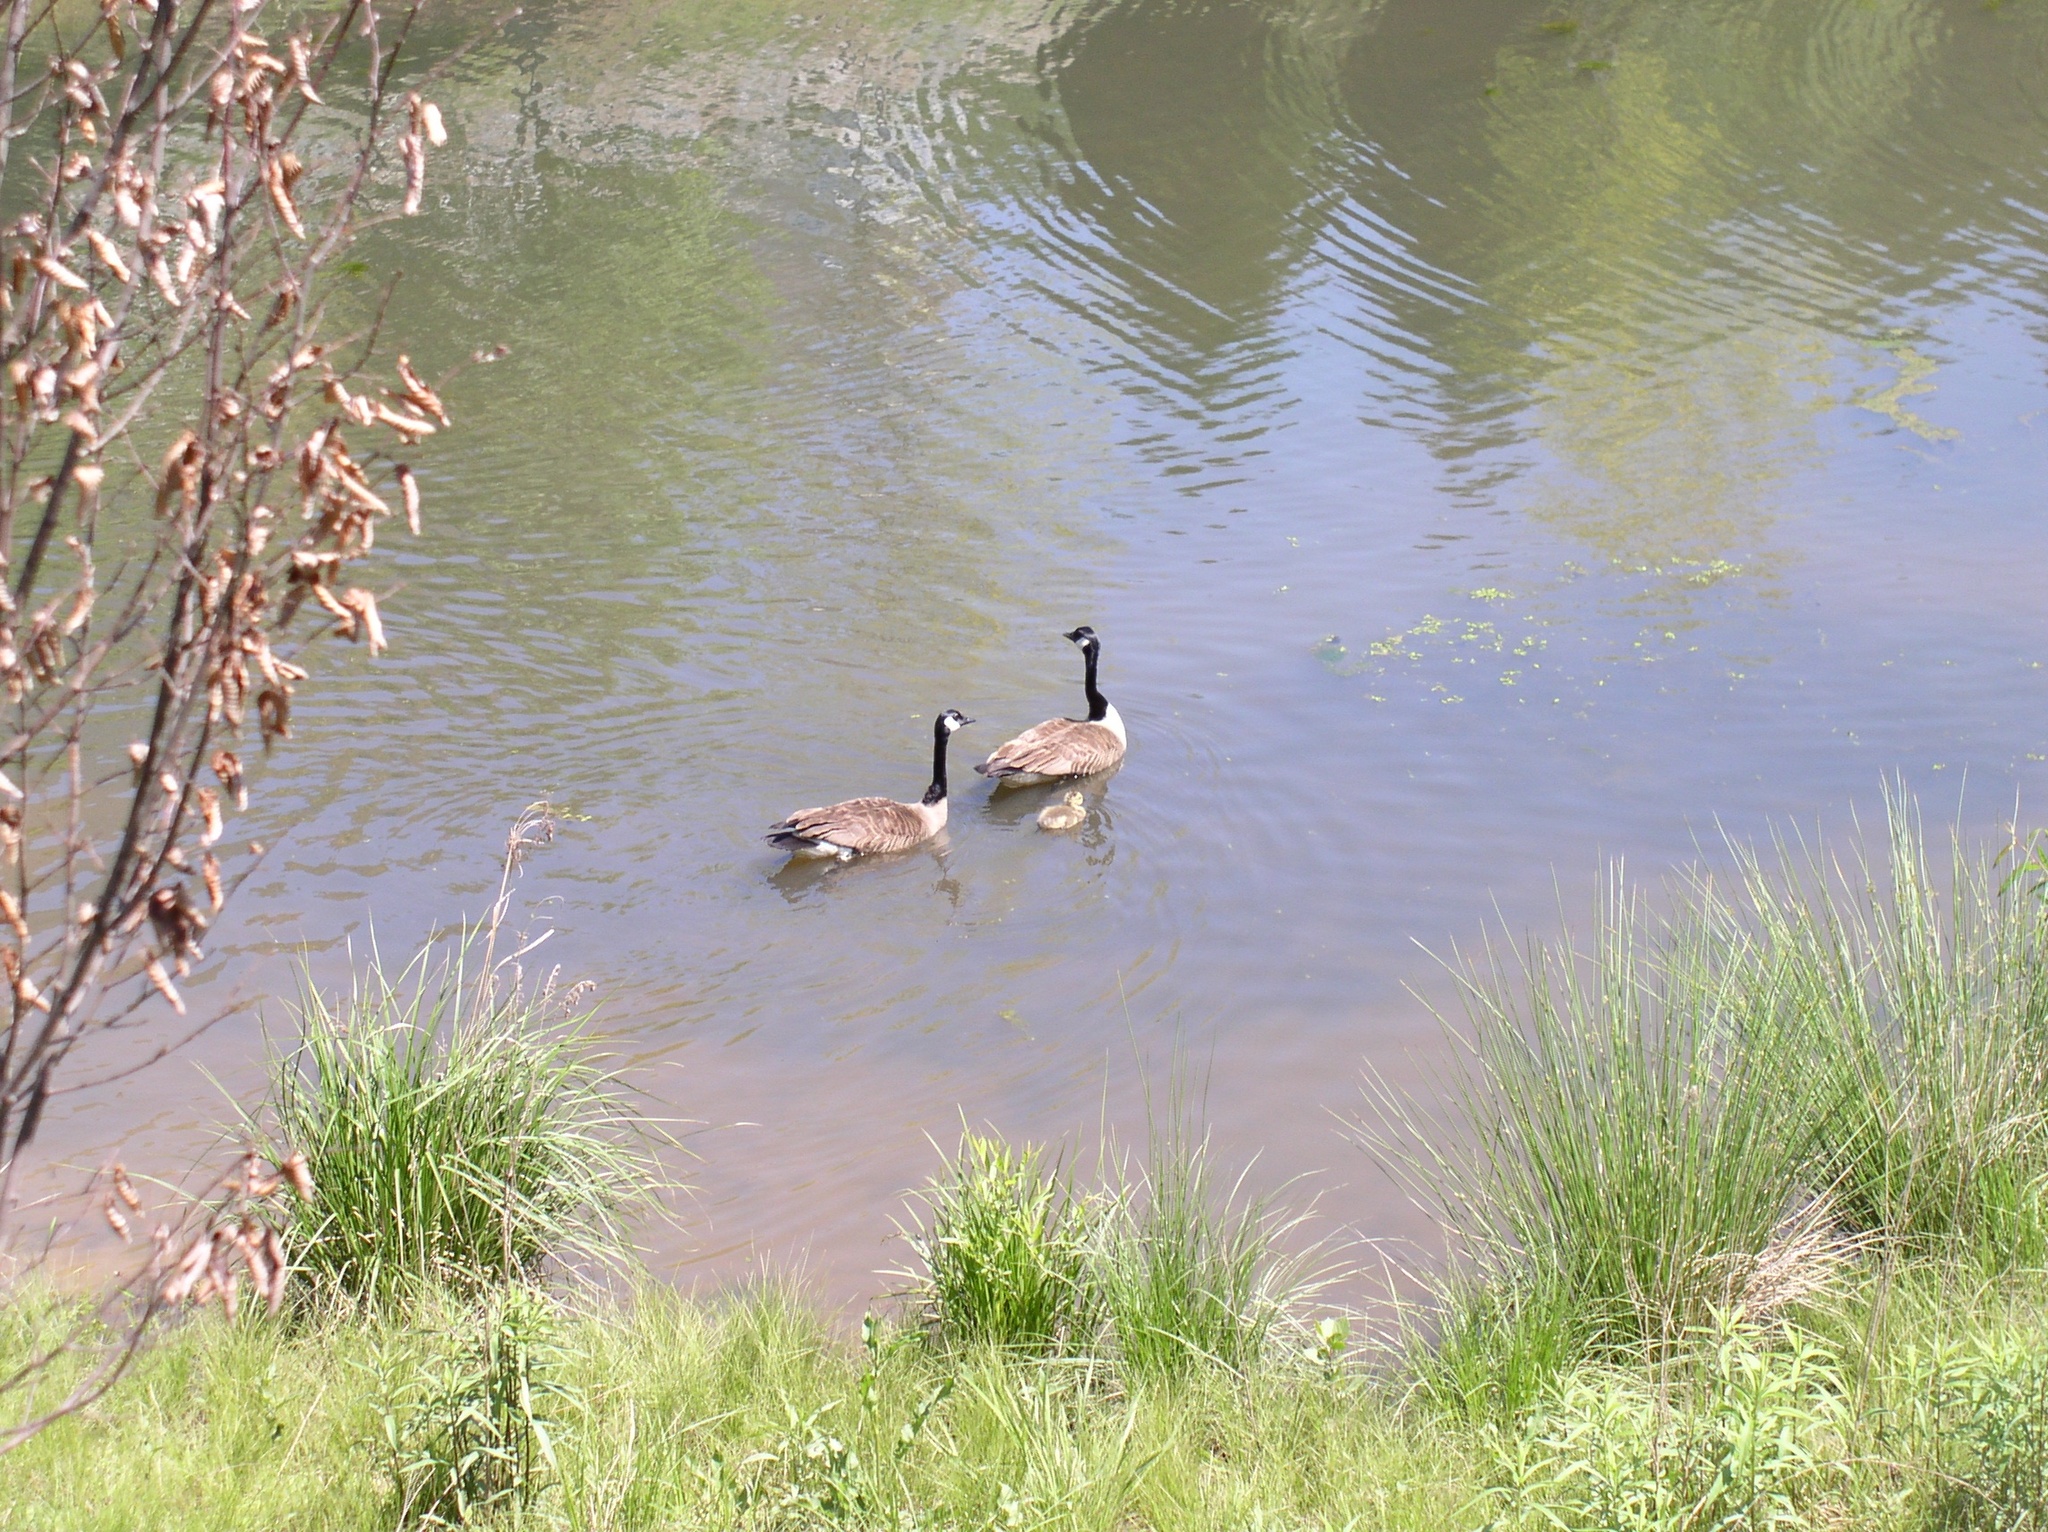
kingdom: Animalia
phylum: Chordata
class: Aves
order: Anseriformes
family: Anatidae
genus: Branta
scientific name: Branta canadensis
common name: Canada goose
